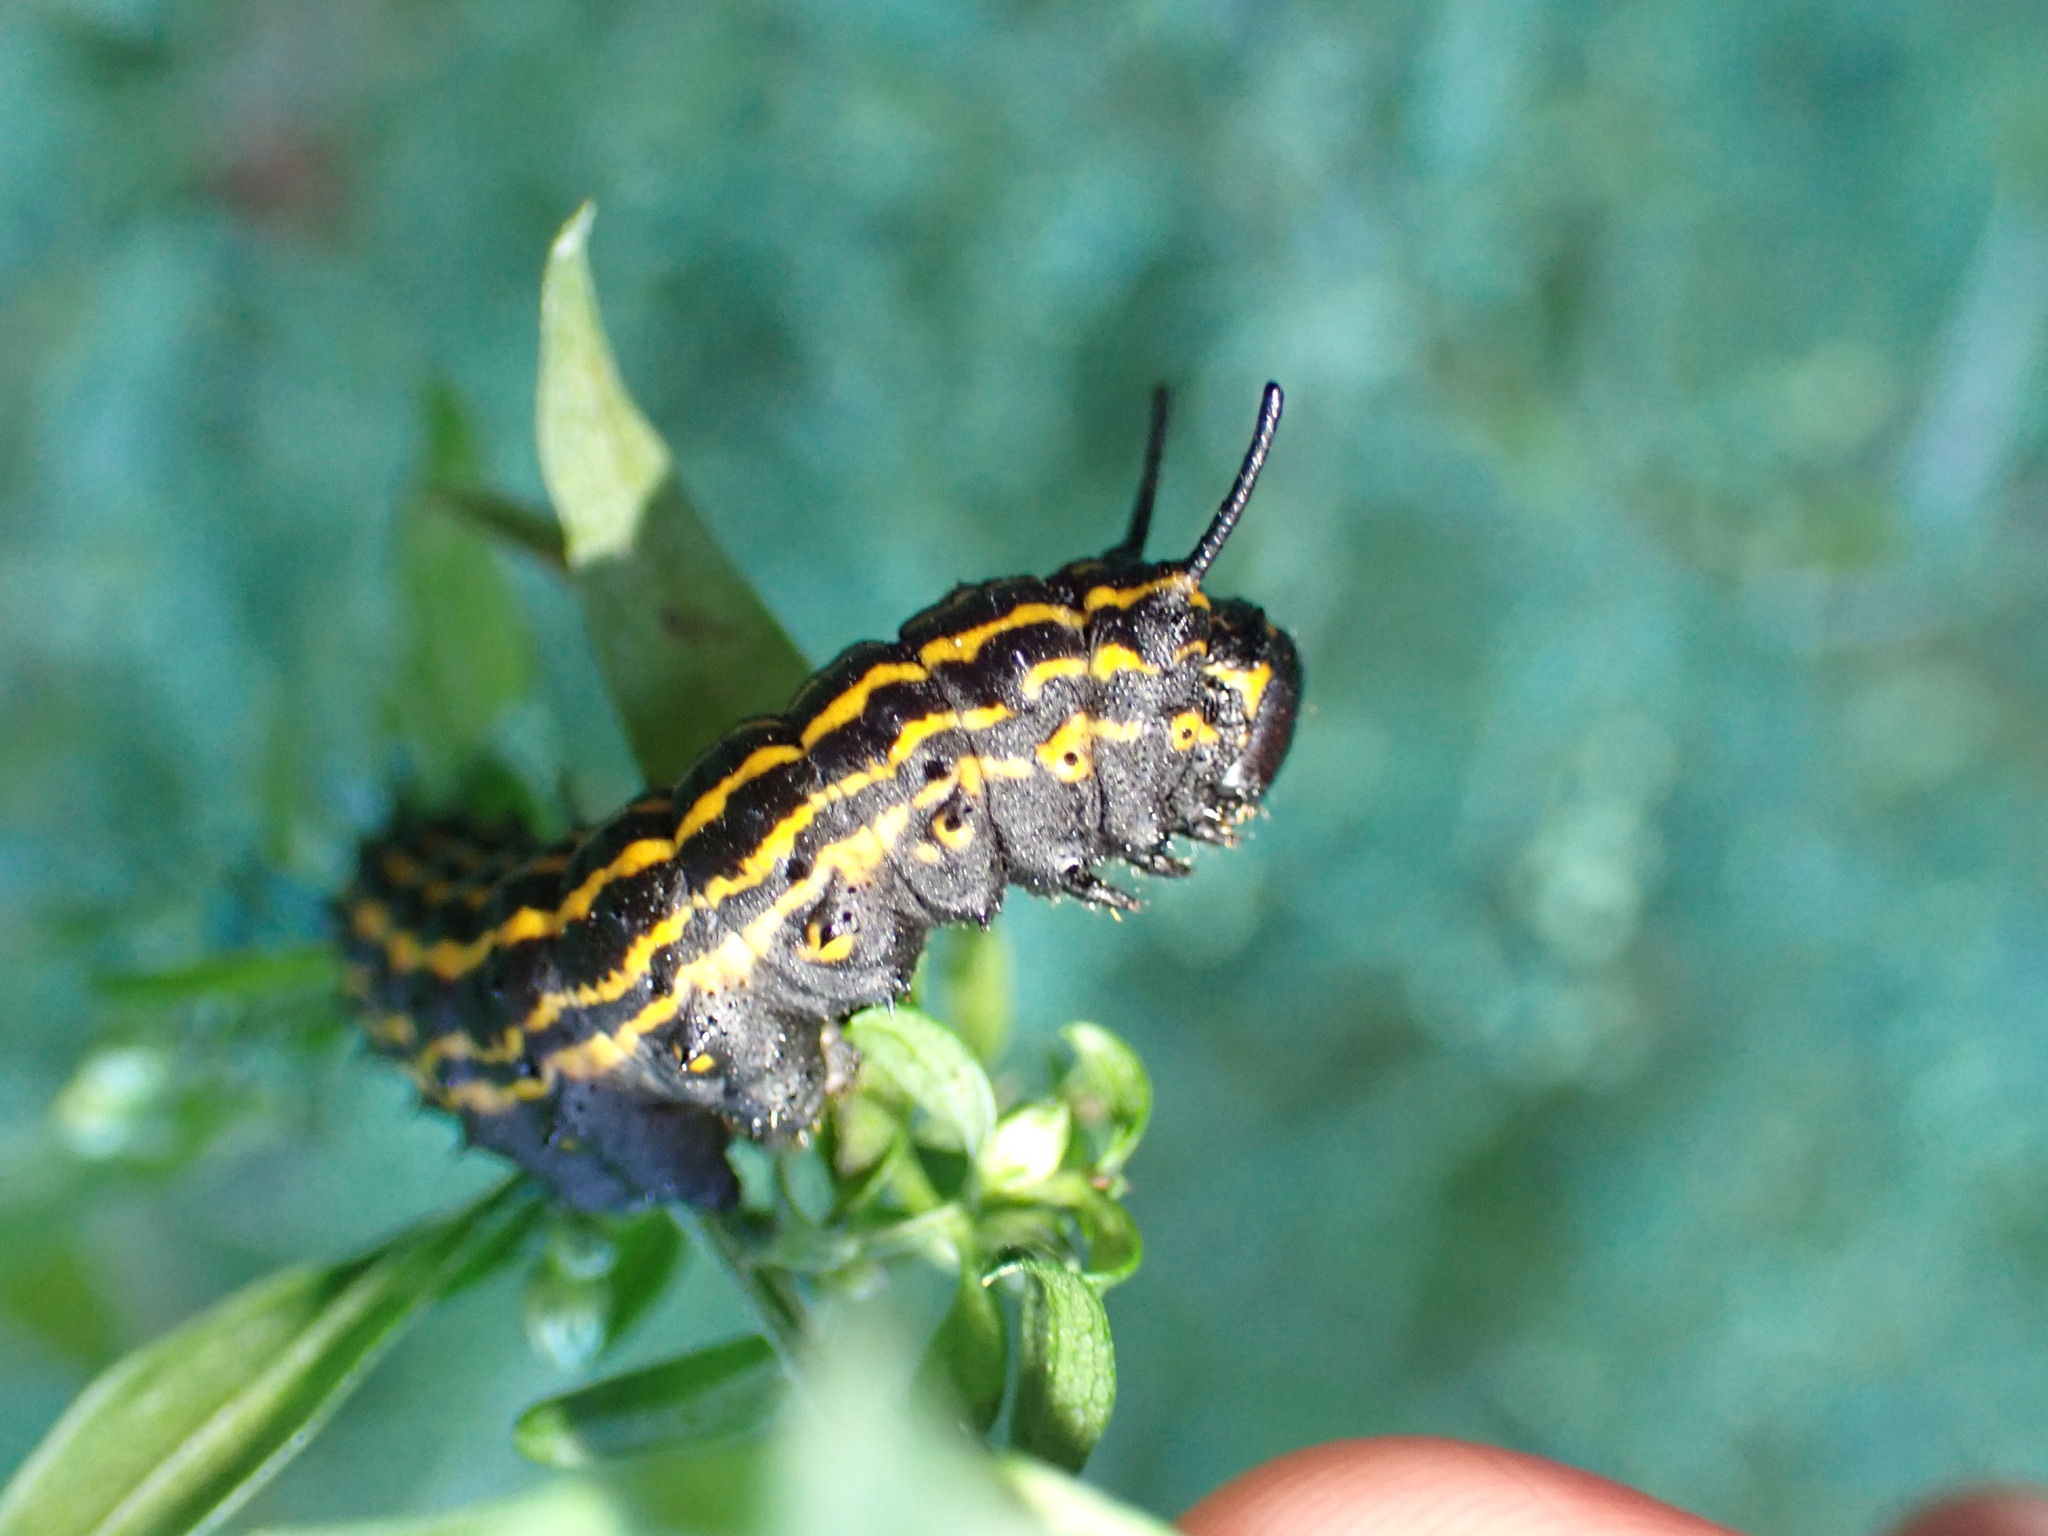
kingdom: Animalia
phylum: Arthropoda
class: Insecta
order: Lepidoptera
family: Saturniidae
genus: Anisota
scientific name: Anisota senatoria
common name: Orange-striped oakworm moth
